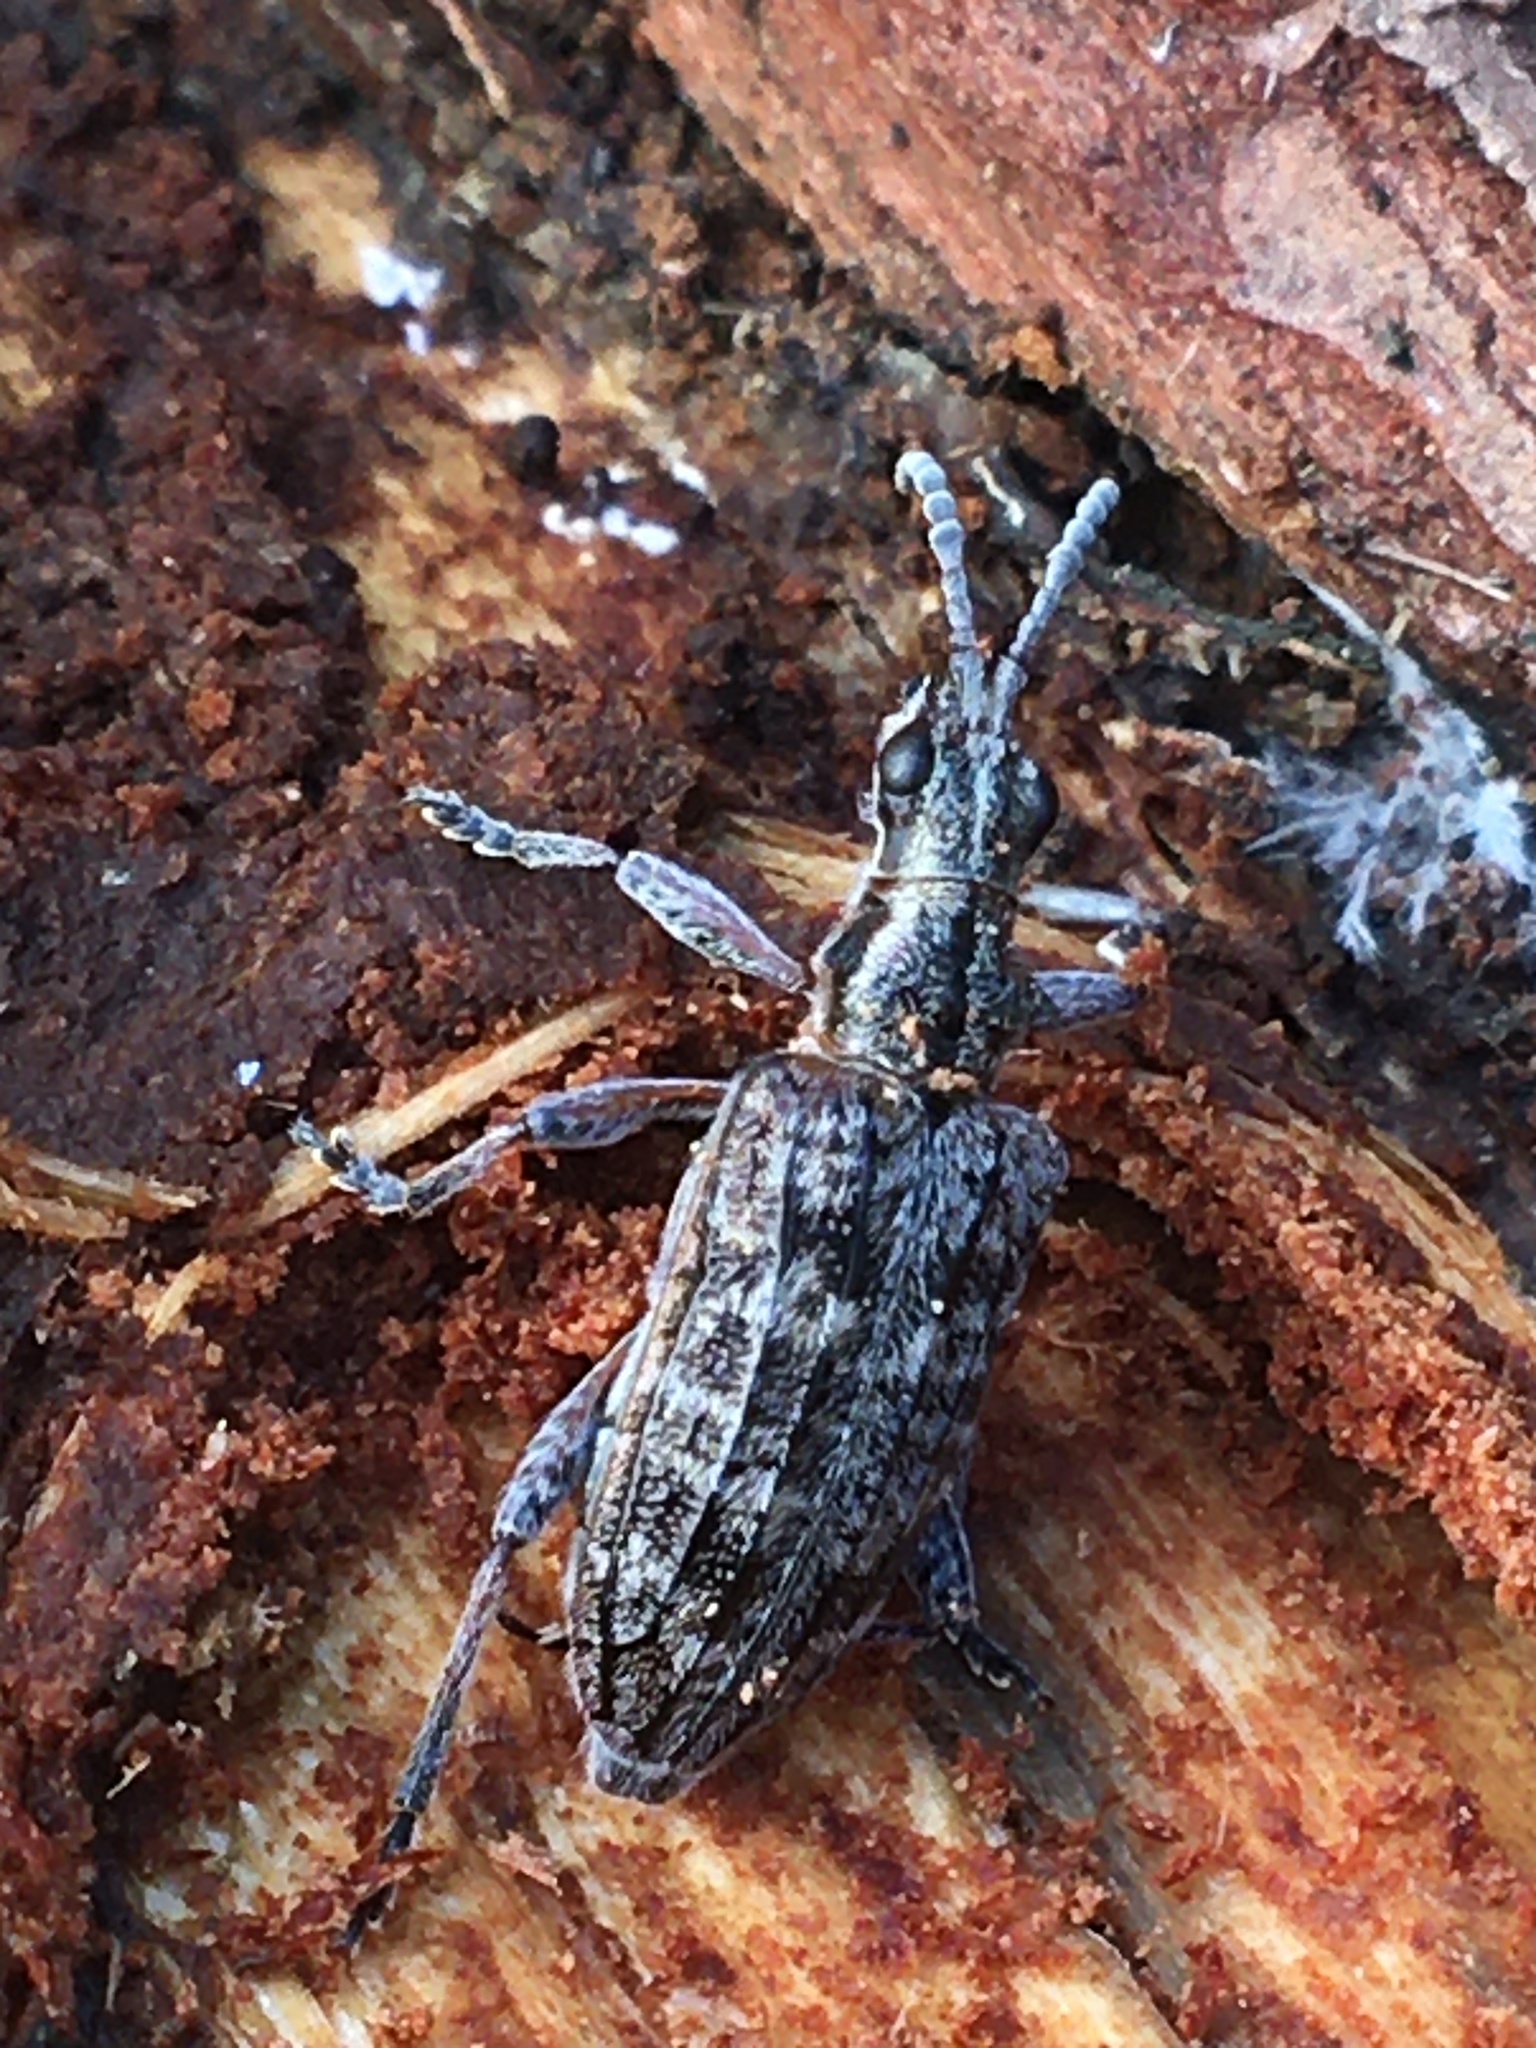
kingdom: Animalia
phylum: Arthropoda
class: Insecta
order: Coleoptera
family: Cerambycidae
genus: Rhagium
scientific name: Rhagium inquisitor
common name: Ribbed pine borer
